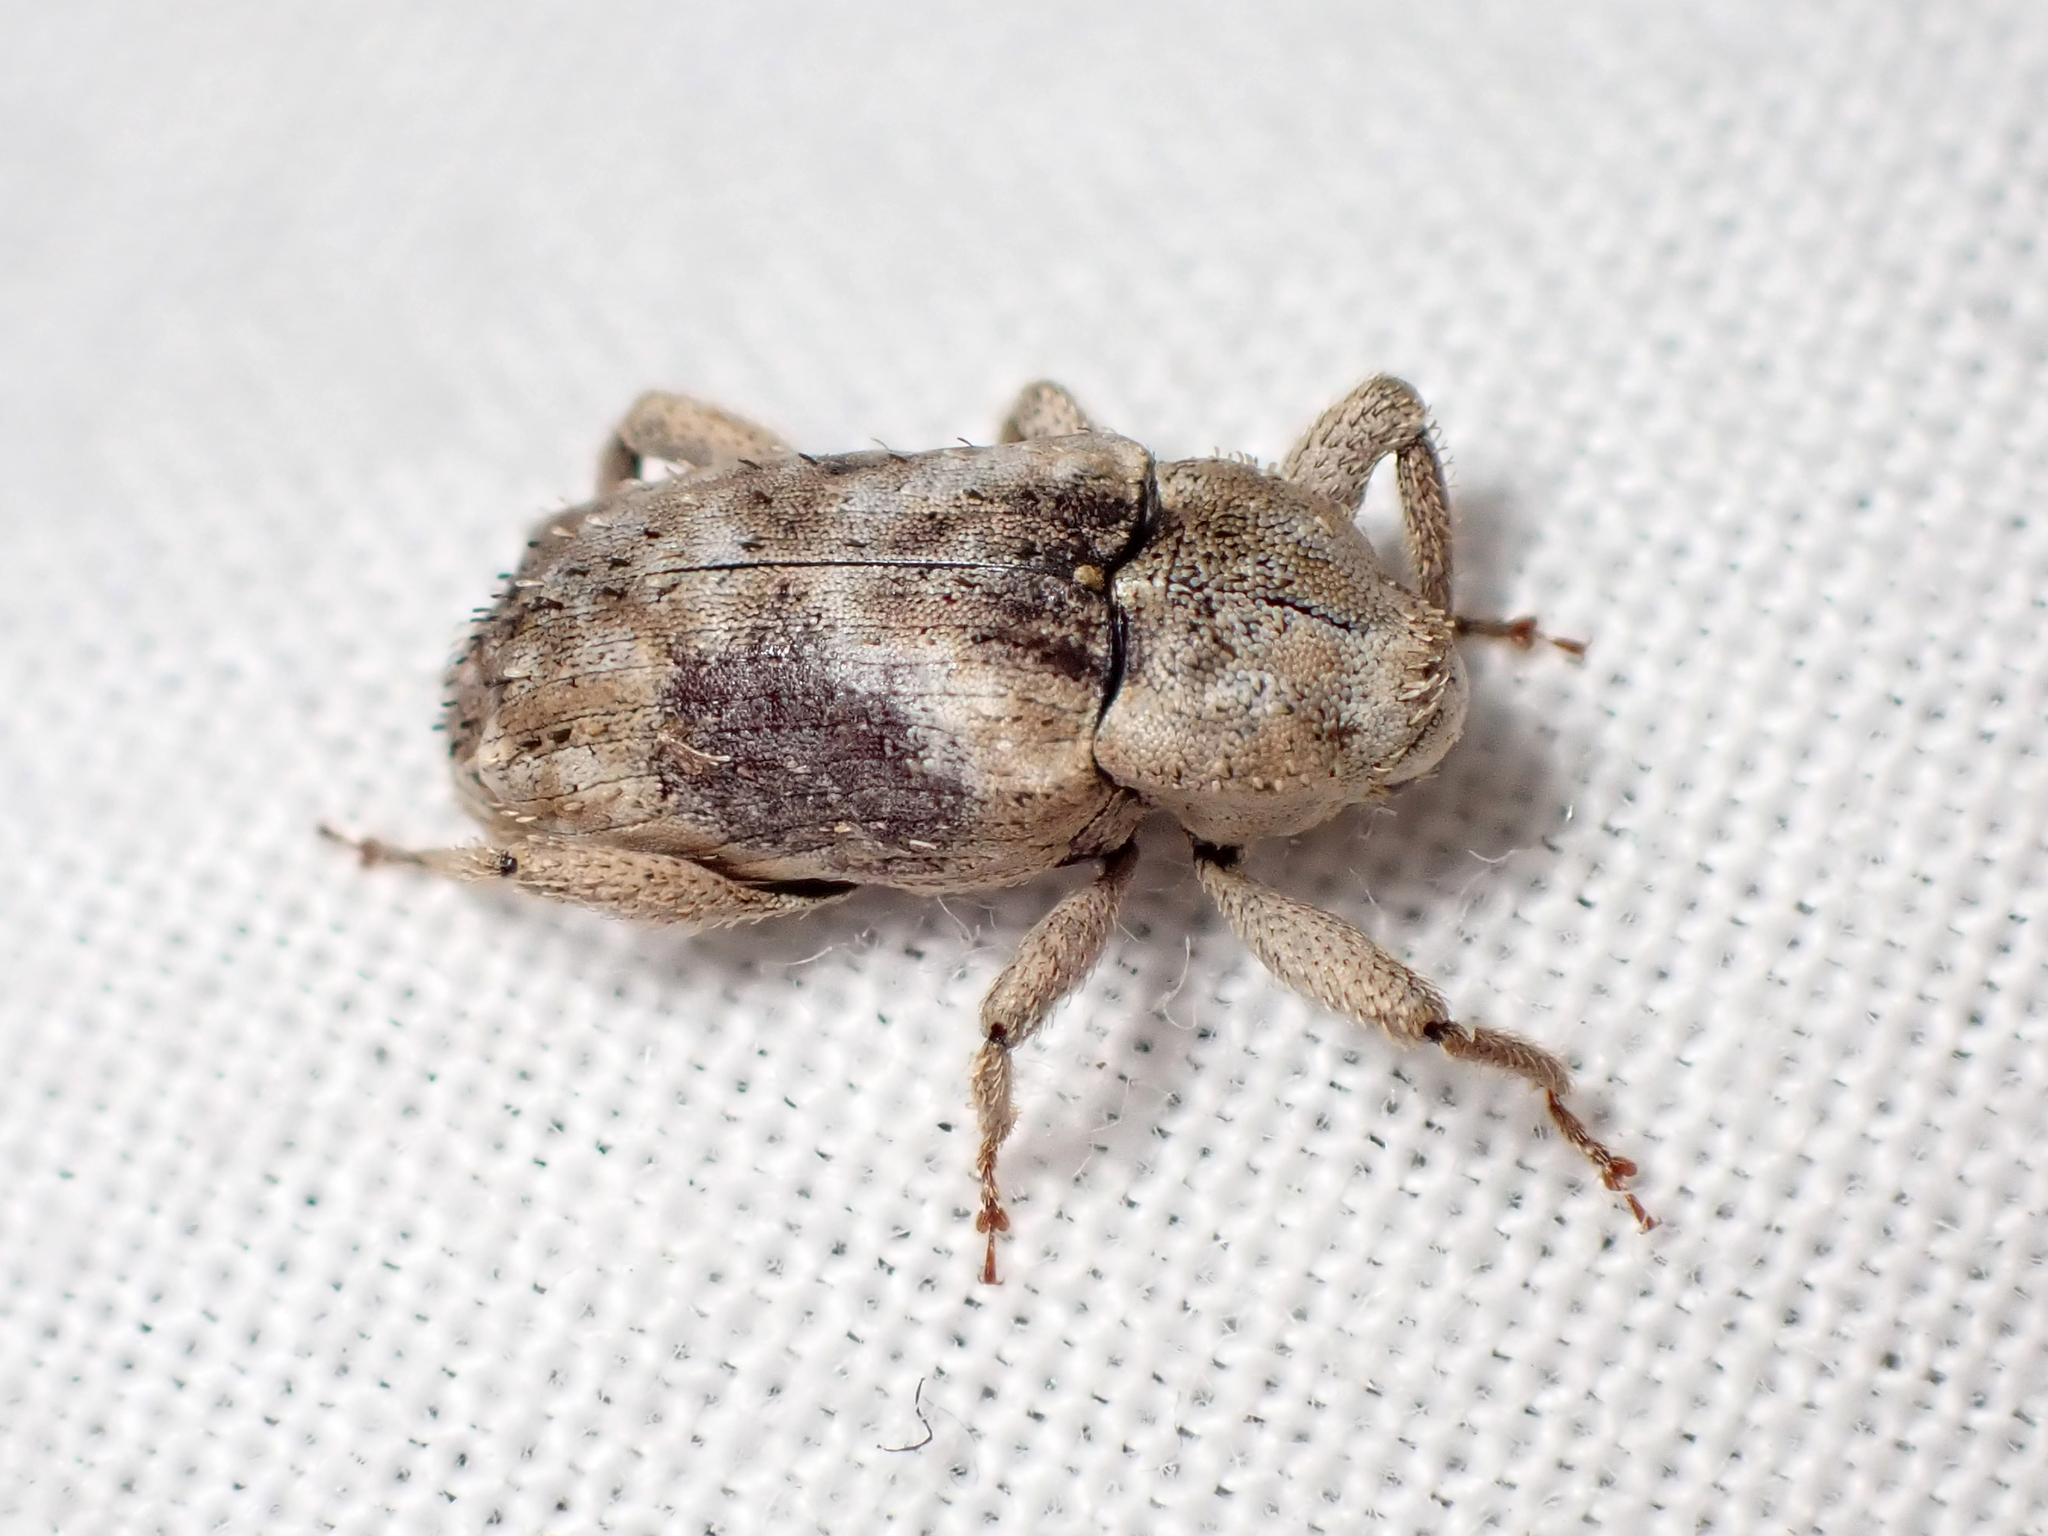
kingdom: Animalia
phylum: Arthropoda
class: Insecta
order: Coleoptera
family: Curculionidae
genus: Mitrastethus
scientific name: Mitrastethus baridioides
